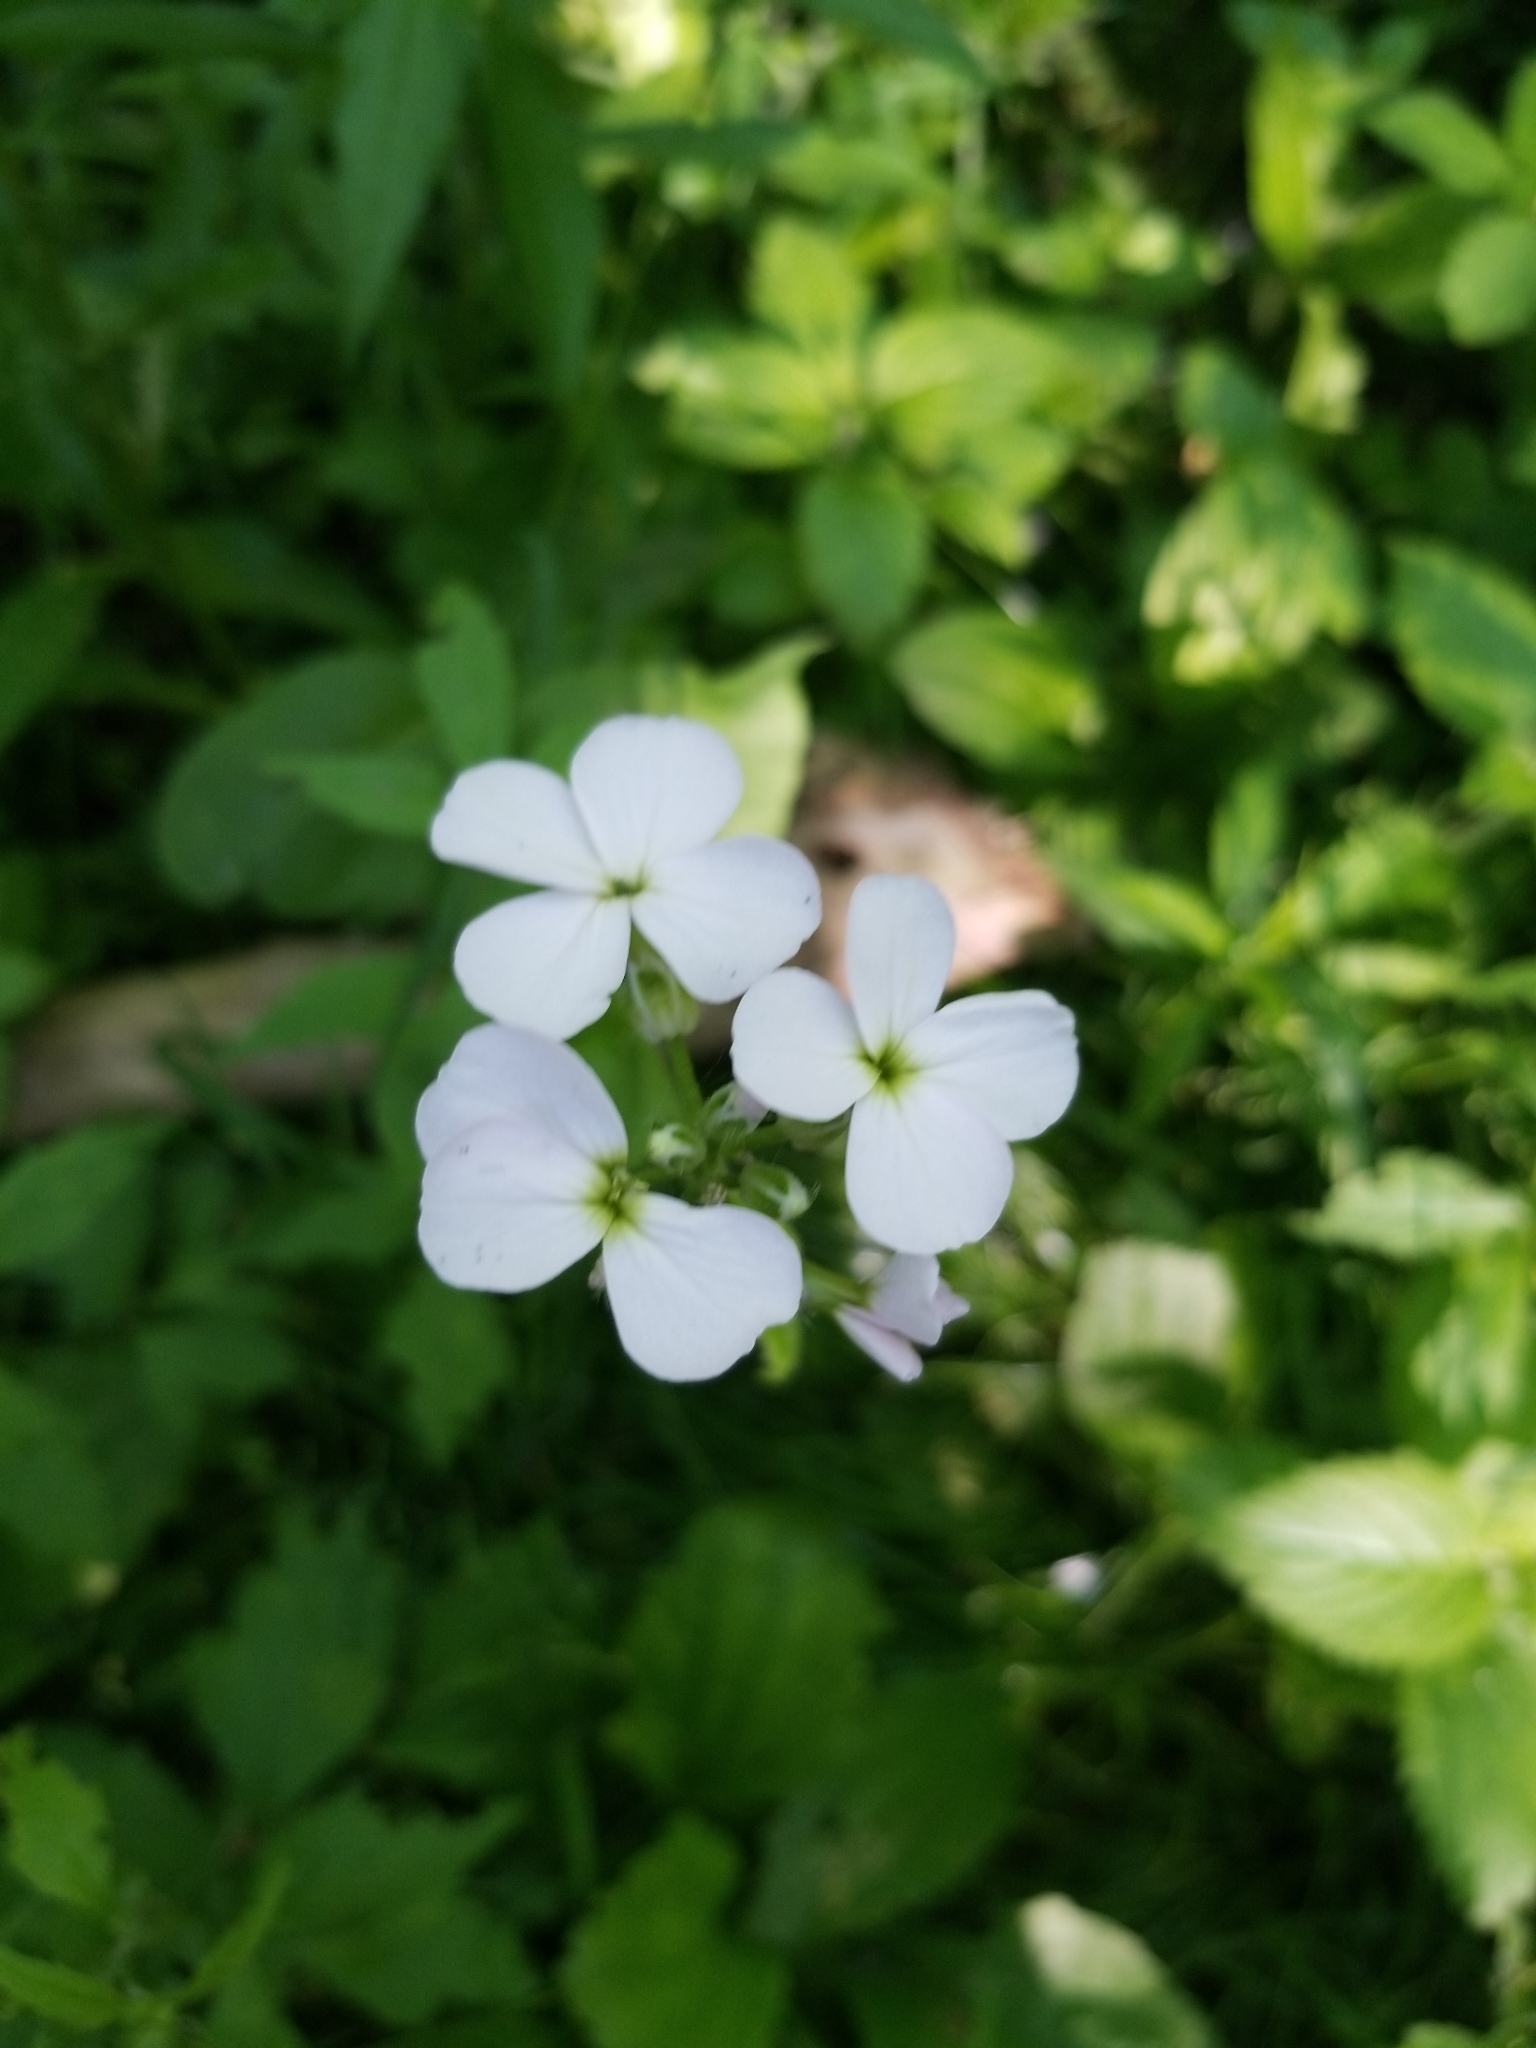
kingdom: Plantae
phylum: Tracheophyta
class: Magnoliopsida
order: Brassicales
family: Brassicaceae
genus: Hesperis
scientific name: Hesperis matronalis
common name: Dame's-violet
